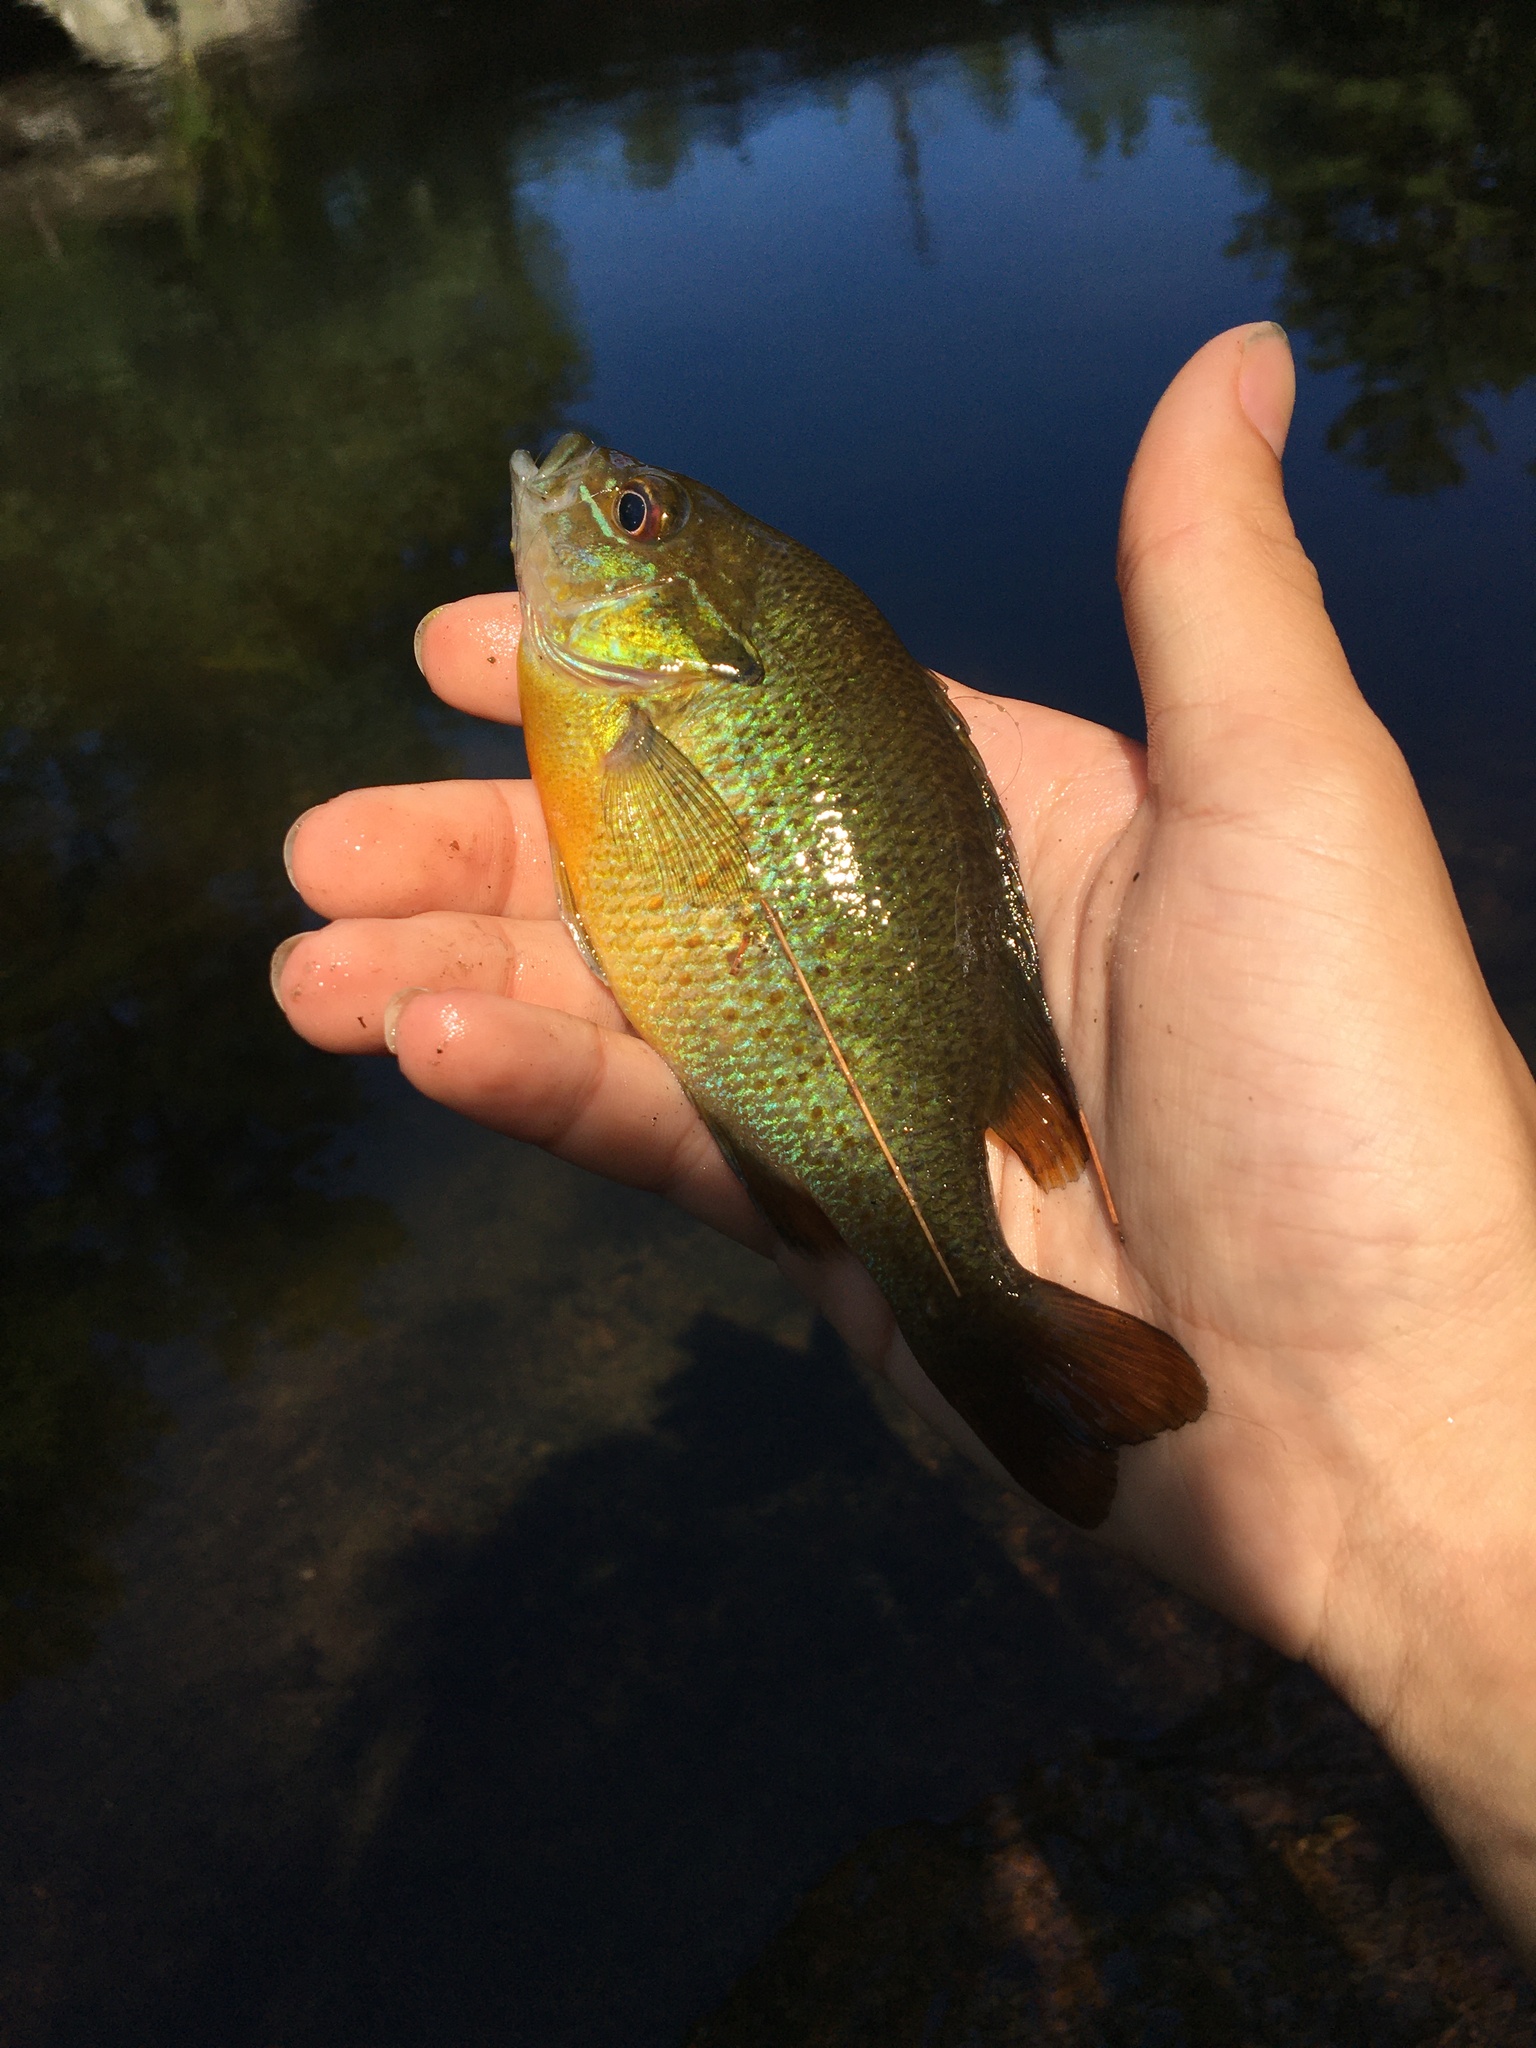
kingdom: Animalia
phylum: Chordata
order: Perciformes
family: Centrarchidae
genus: Lepomis
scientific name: Lepomis auritus
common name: Redbreast sunfish
